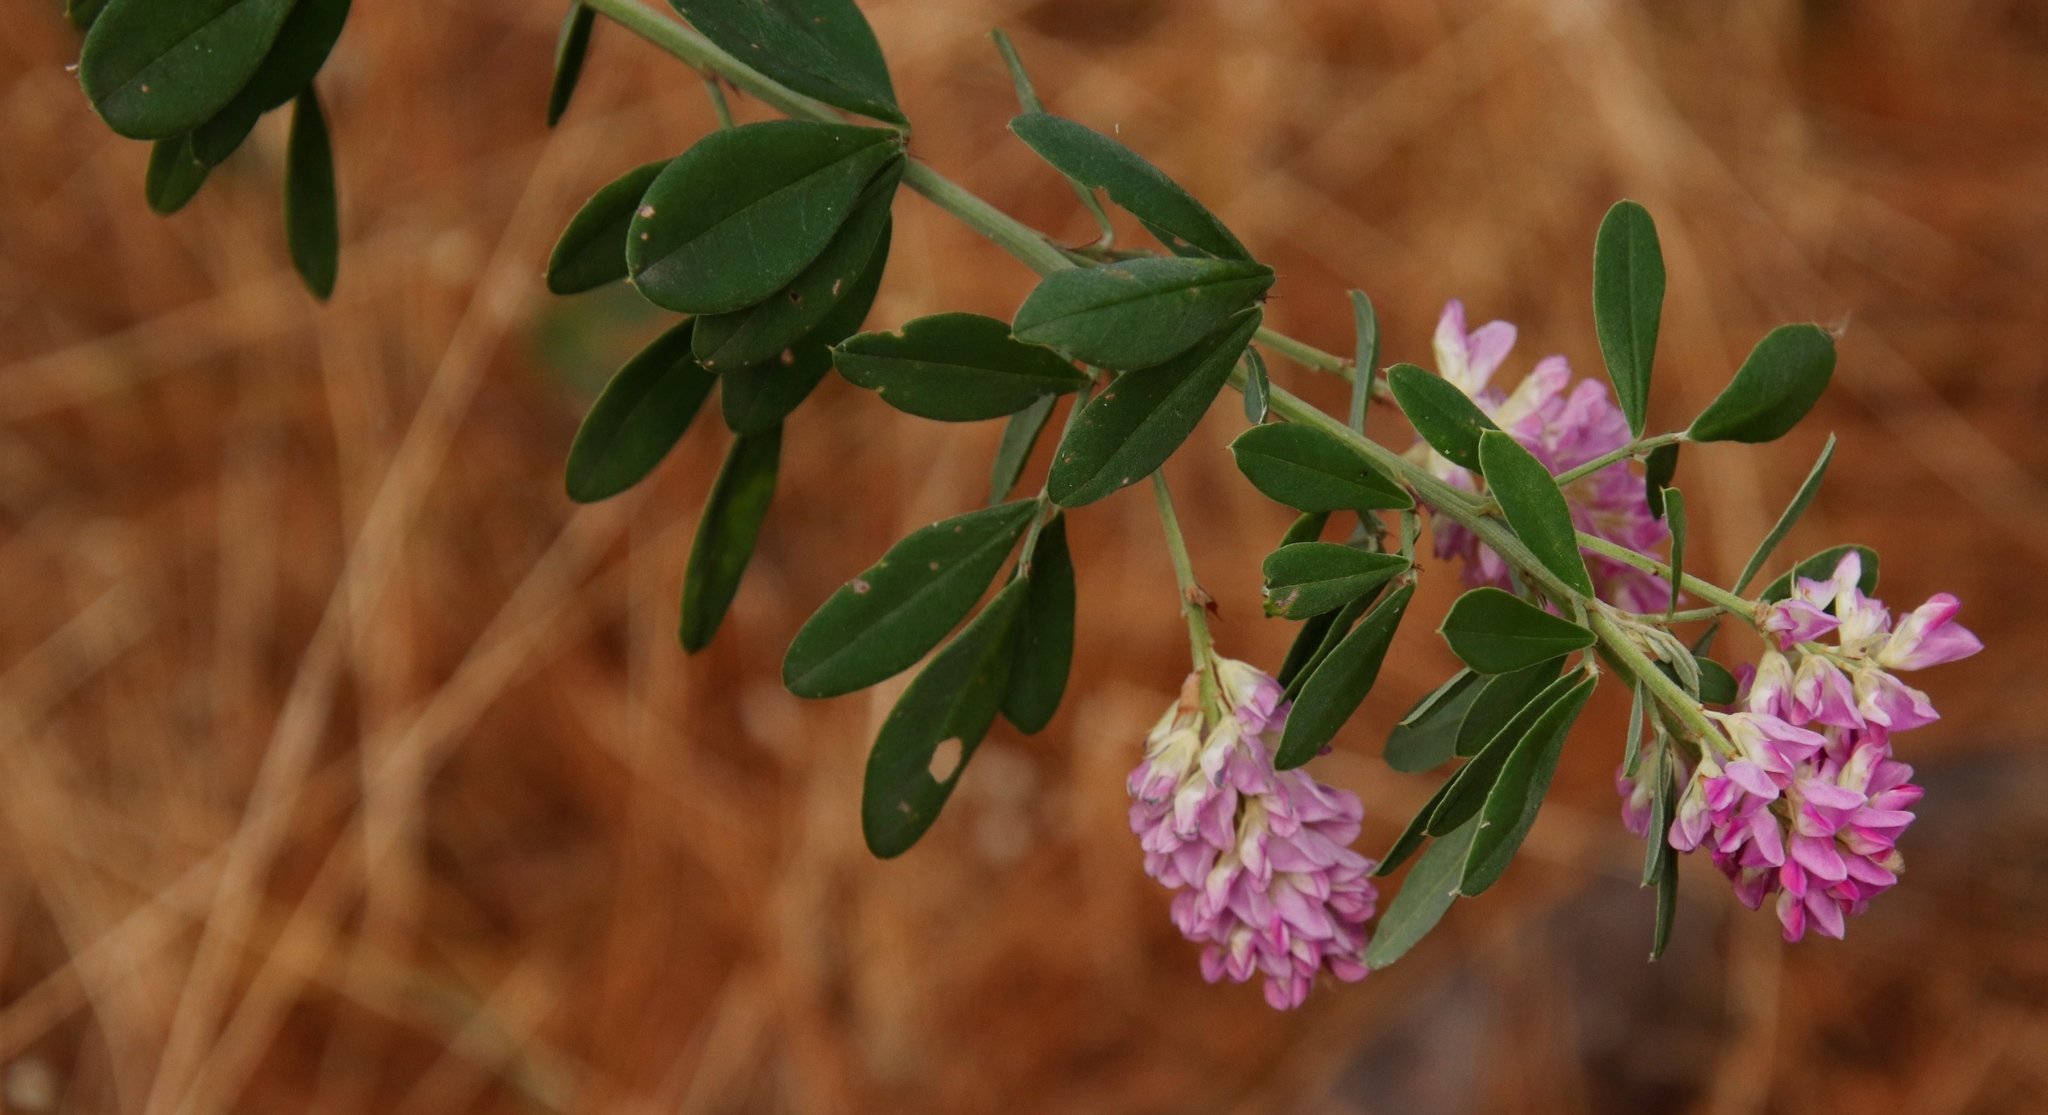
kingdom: Plantae
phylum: Tracheophyta
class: Magnoliopsida
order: Fabales
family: Fabaceae
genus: Indigofera
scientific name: Indigofera cytisoides
